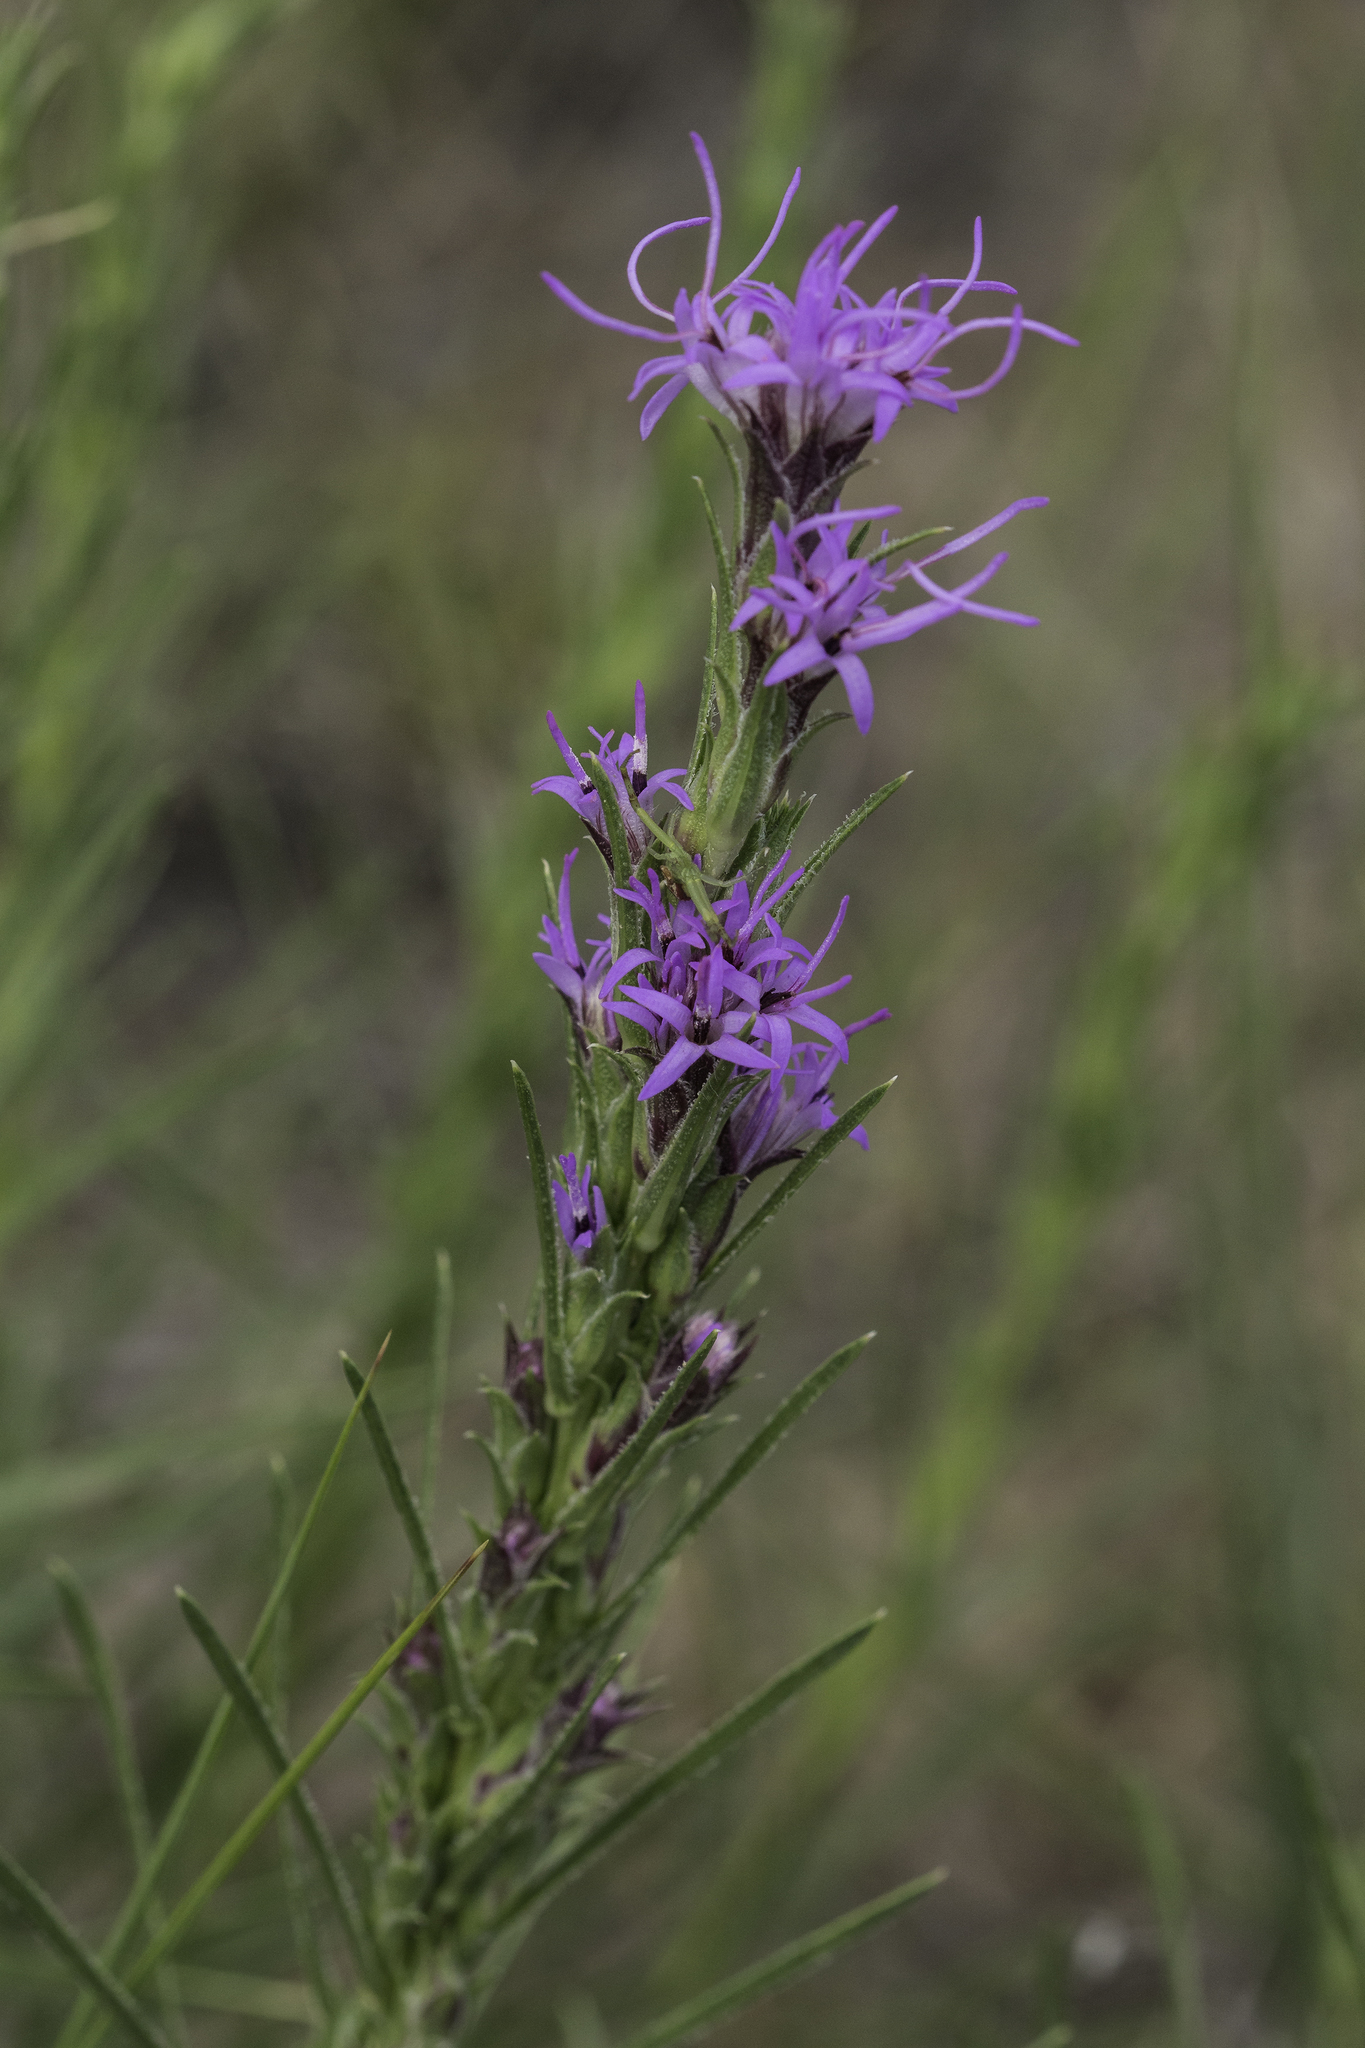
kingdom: Plantae
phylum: Tracheophyta
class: Magnoliopsida
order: Asterales
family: Asteraceae
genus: Liatris
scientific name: Liatris punctata
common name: Dotted gayfeather
